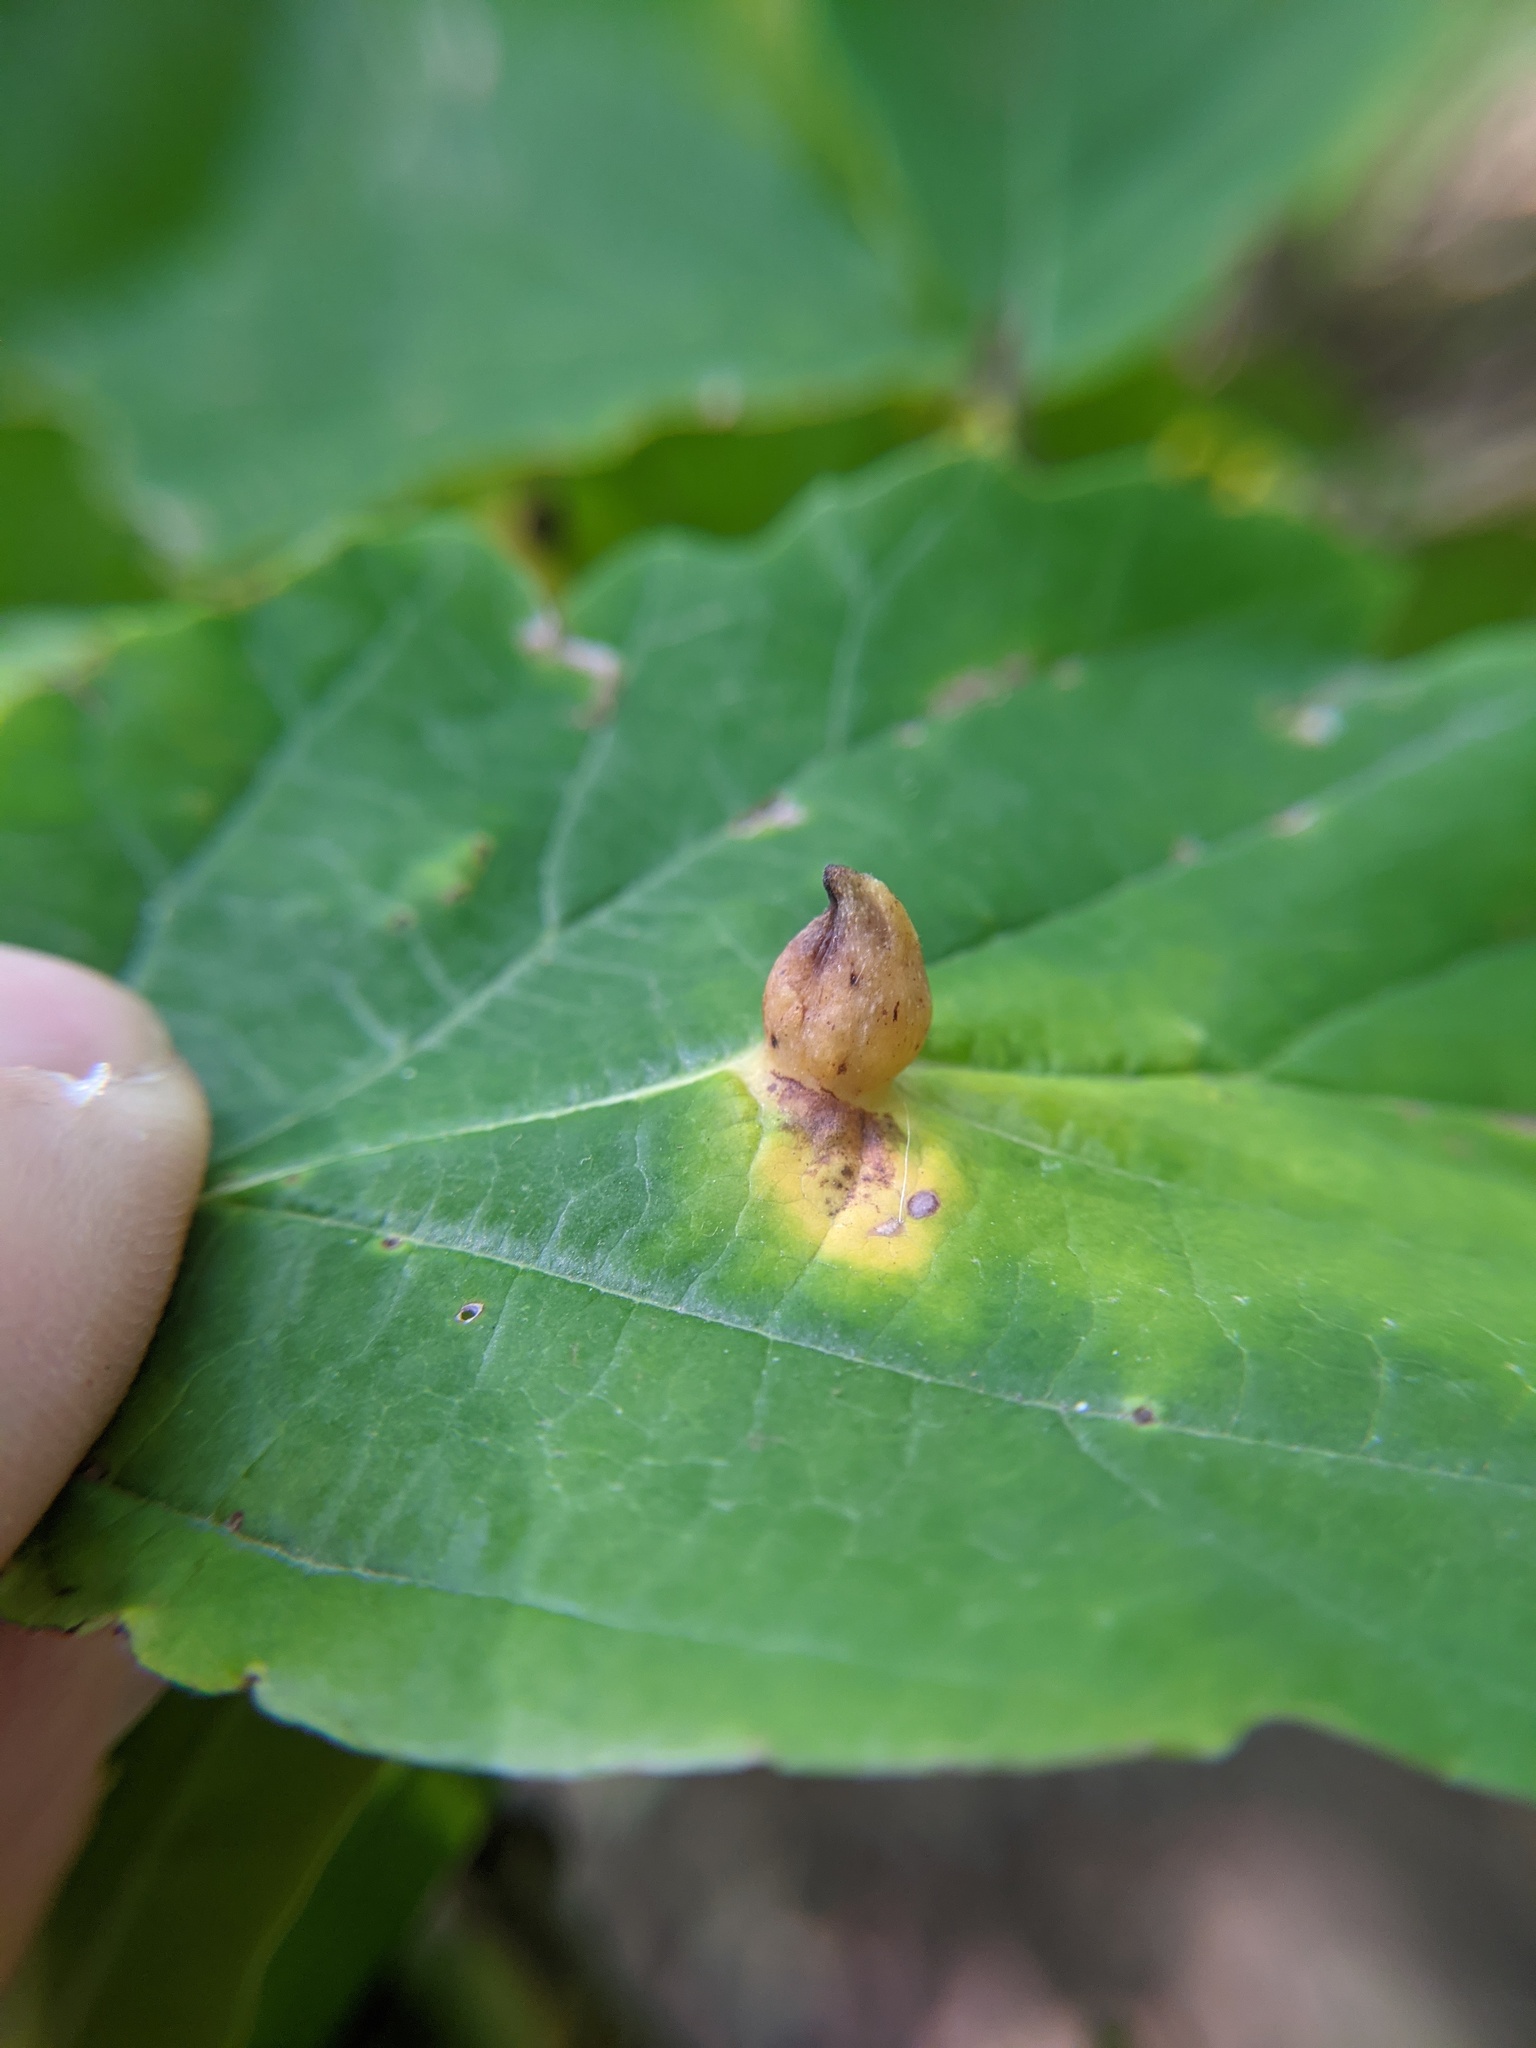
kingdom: Animalia
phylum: Arthropoda
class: Insecta
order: Hemiptera
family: Aphididae
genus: Hormaphis
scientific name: Hormaphis hamamelidis
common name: Witch-hazel cone gall aphid
